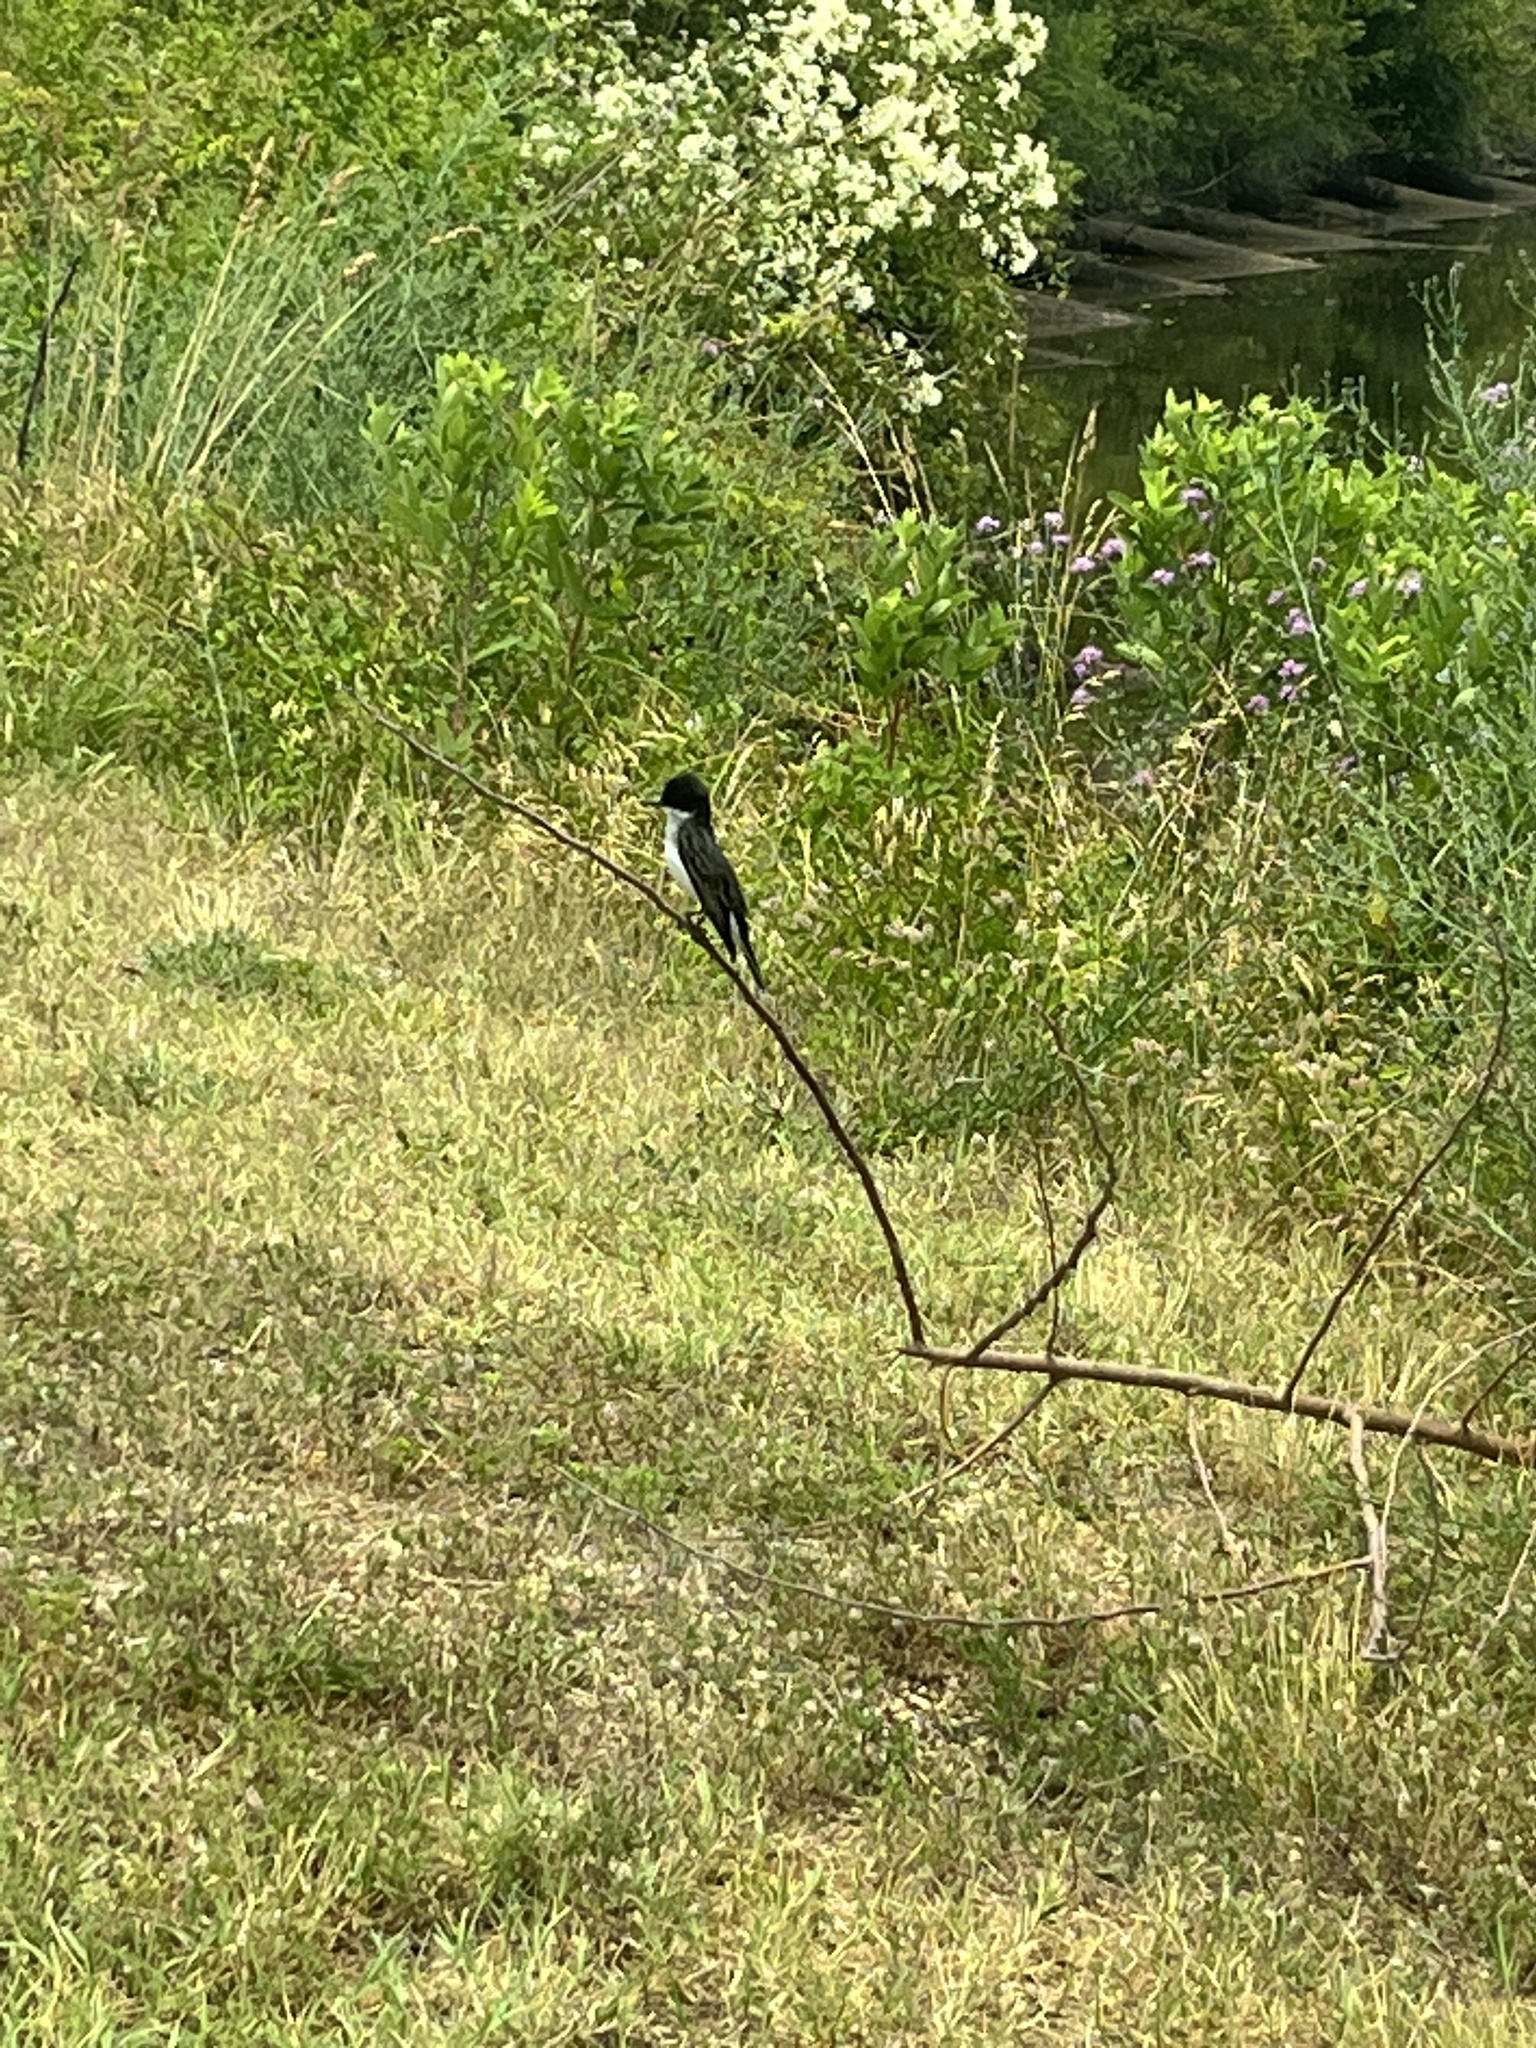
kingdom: Animalia
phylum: Chordata
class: Aves
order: Passeriformes
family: Tyrannidae
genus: Tyrannus
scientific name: Tyrannus tyrannus
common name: Eastern kingbird
